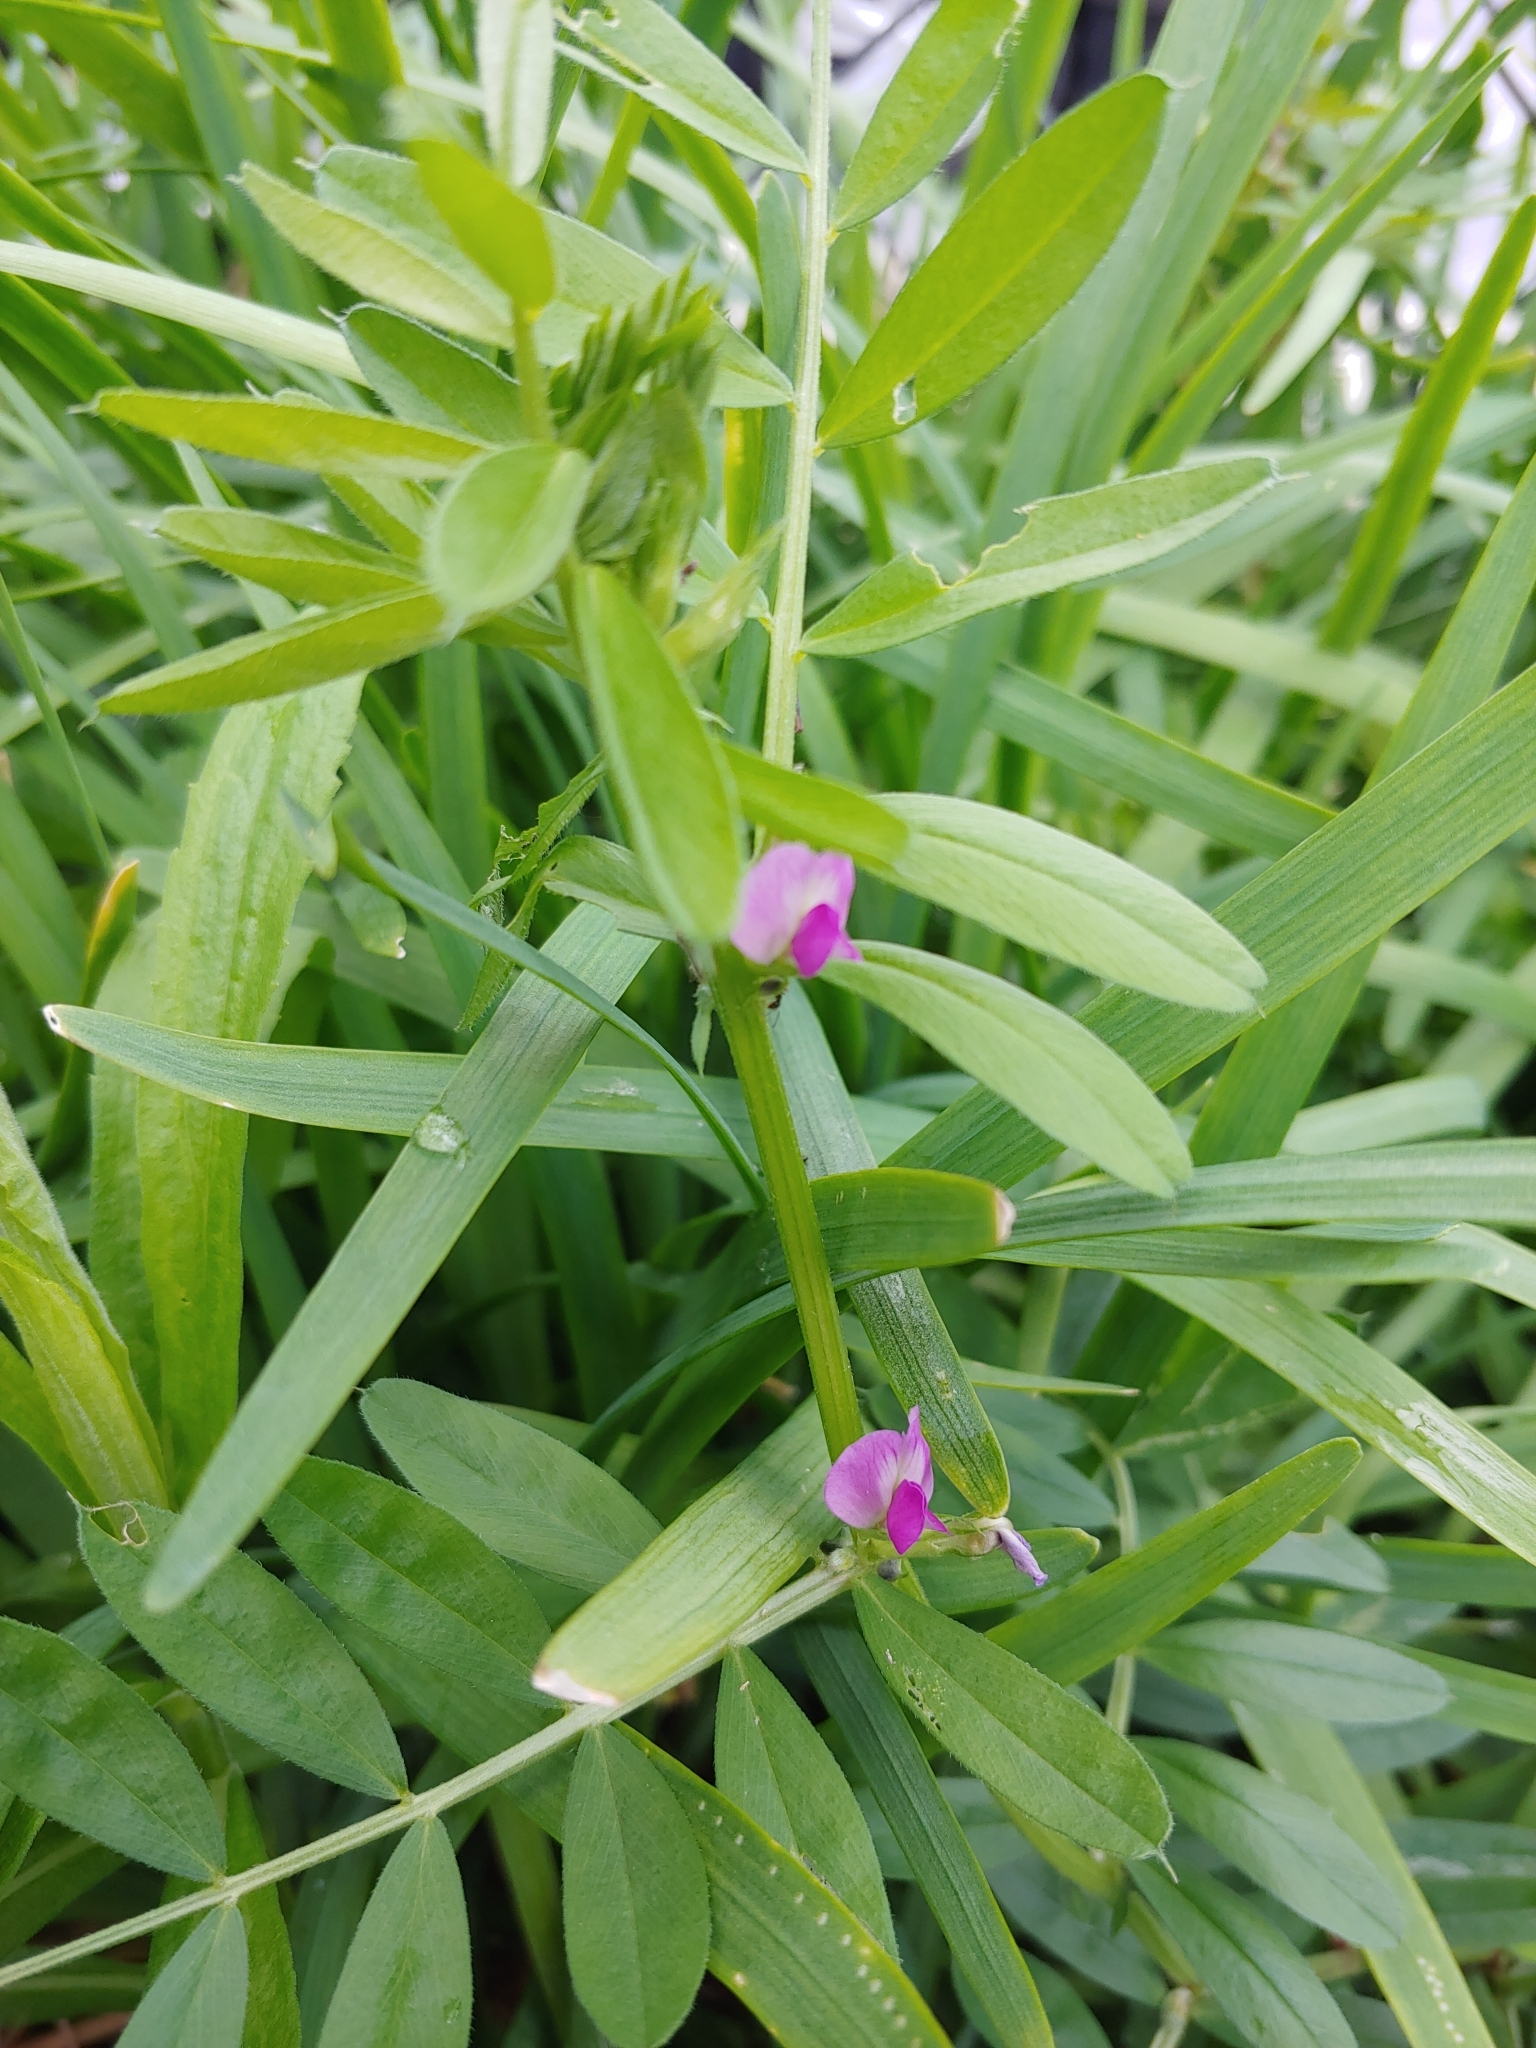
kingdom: Plantae
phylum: Tracheophyta
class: Magnoliopsida
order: Fabales
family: Fabaceae
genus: Vicia
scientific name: Vicia sativa
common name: Garden vetch
